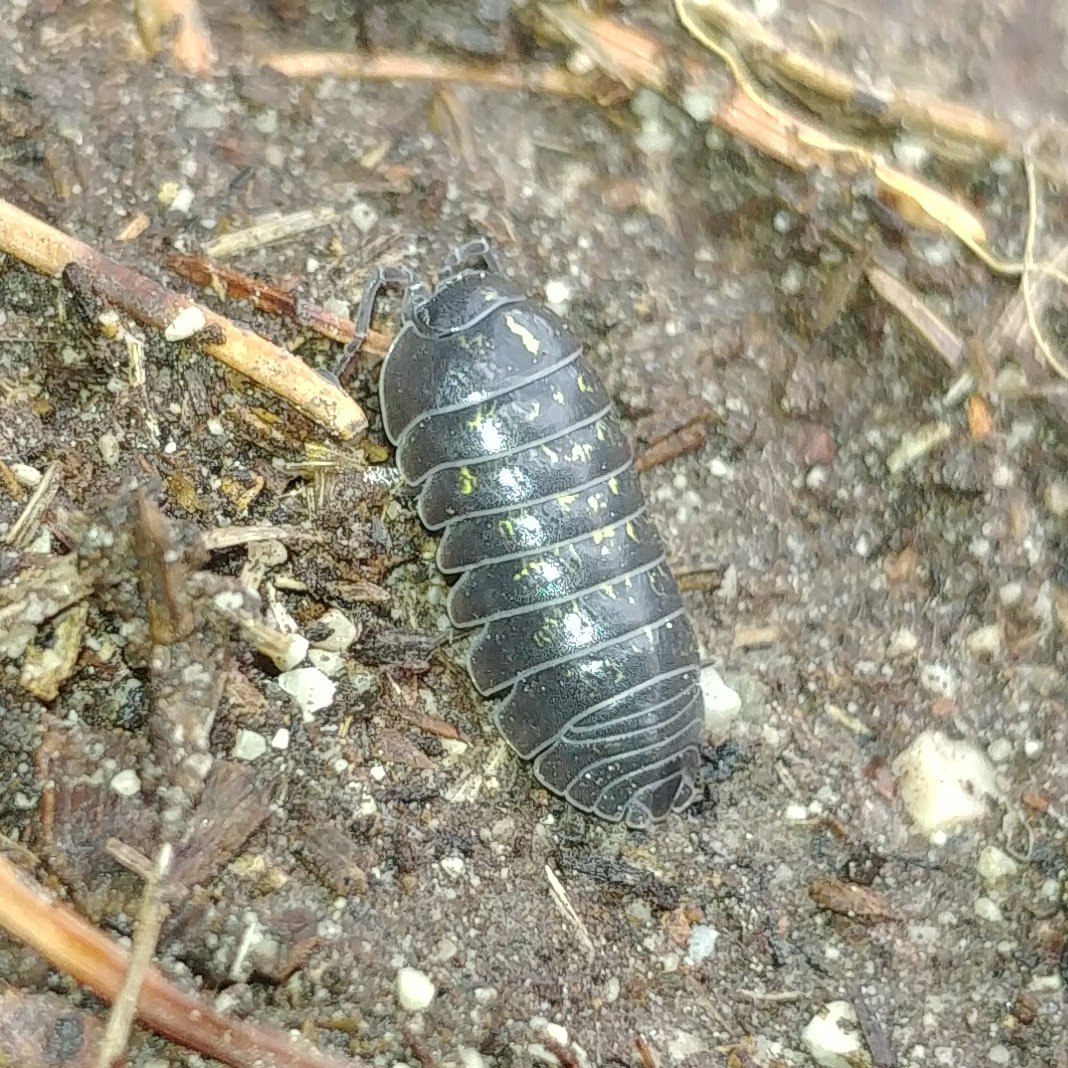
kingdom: Animalia
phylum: Arthropoda
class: Malacostraca
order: Isopoda
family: Armadillidiidae
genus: Armadillidium
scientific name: Armadillidium vulgare
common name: Common pill woodlouse
